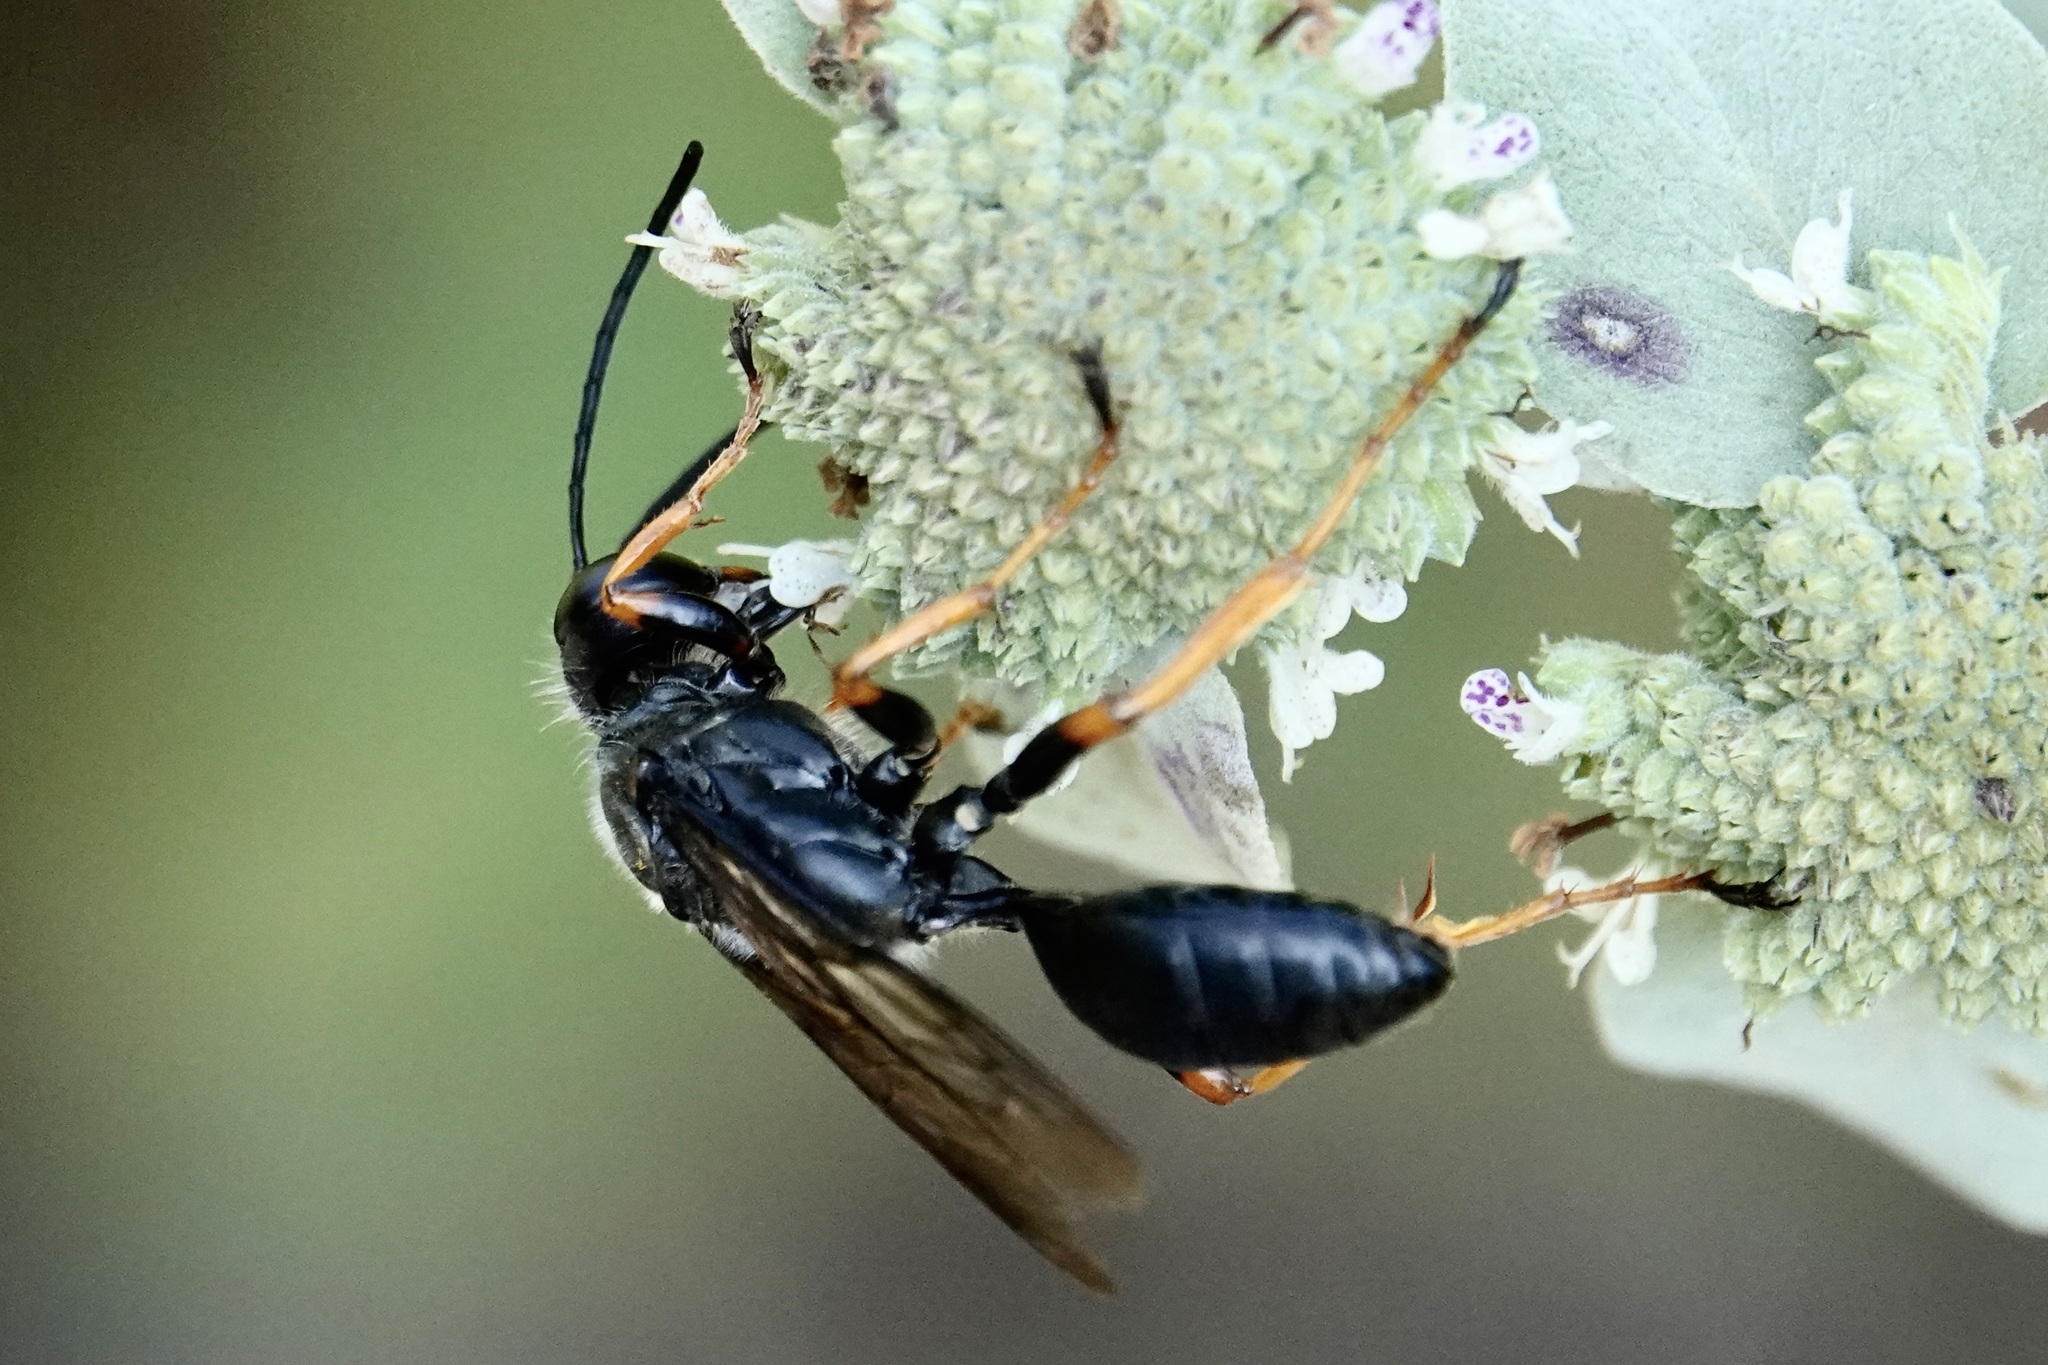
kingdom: Animalia
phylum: Arthropoda
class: Insecta
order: Hymenoptera
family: Sphecidae
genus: Sphex
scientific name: Sphex nudus
